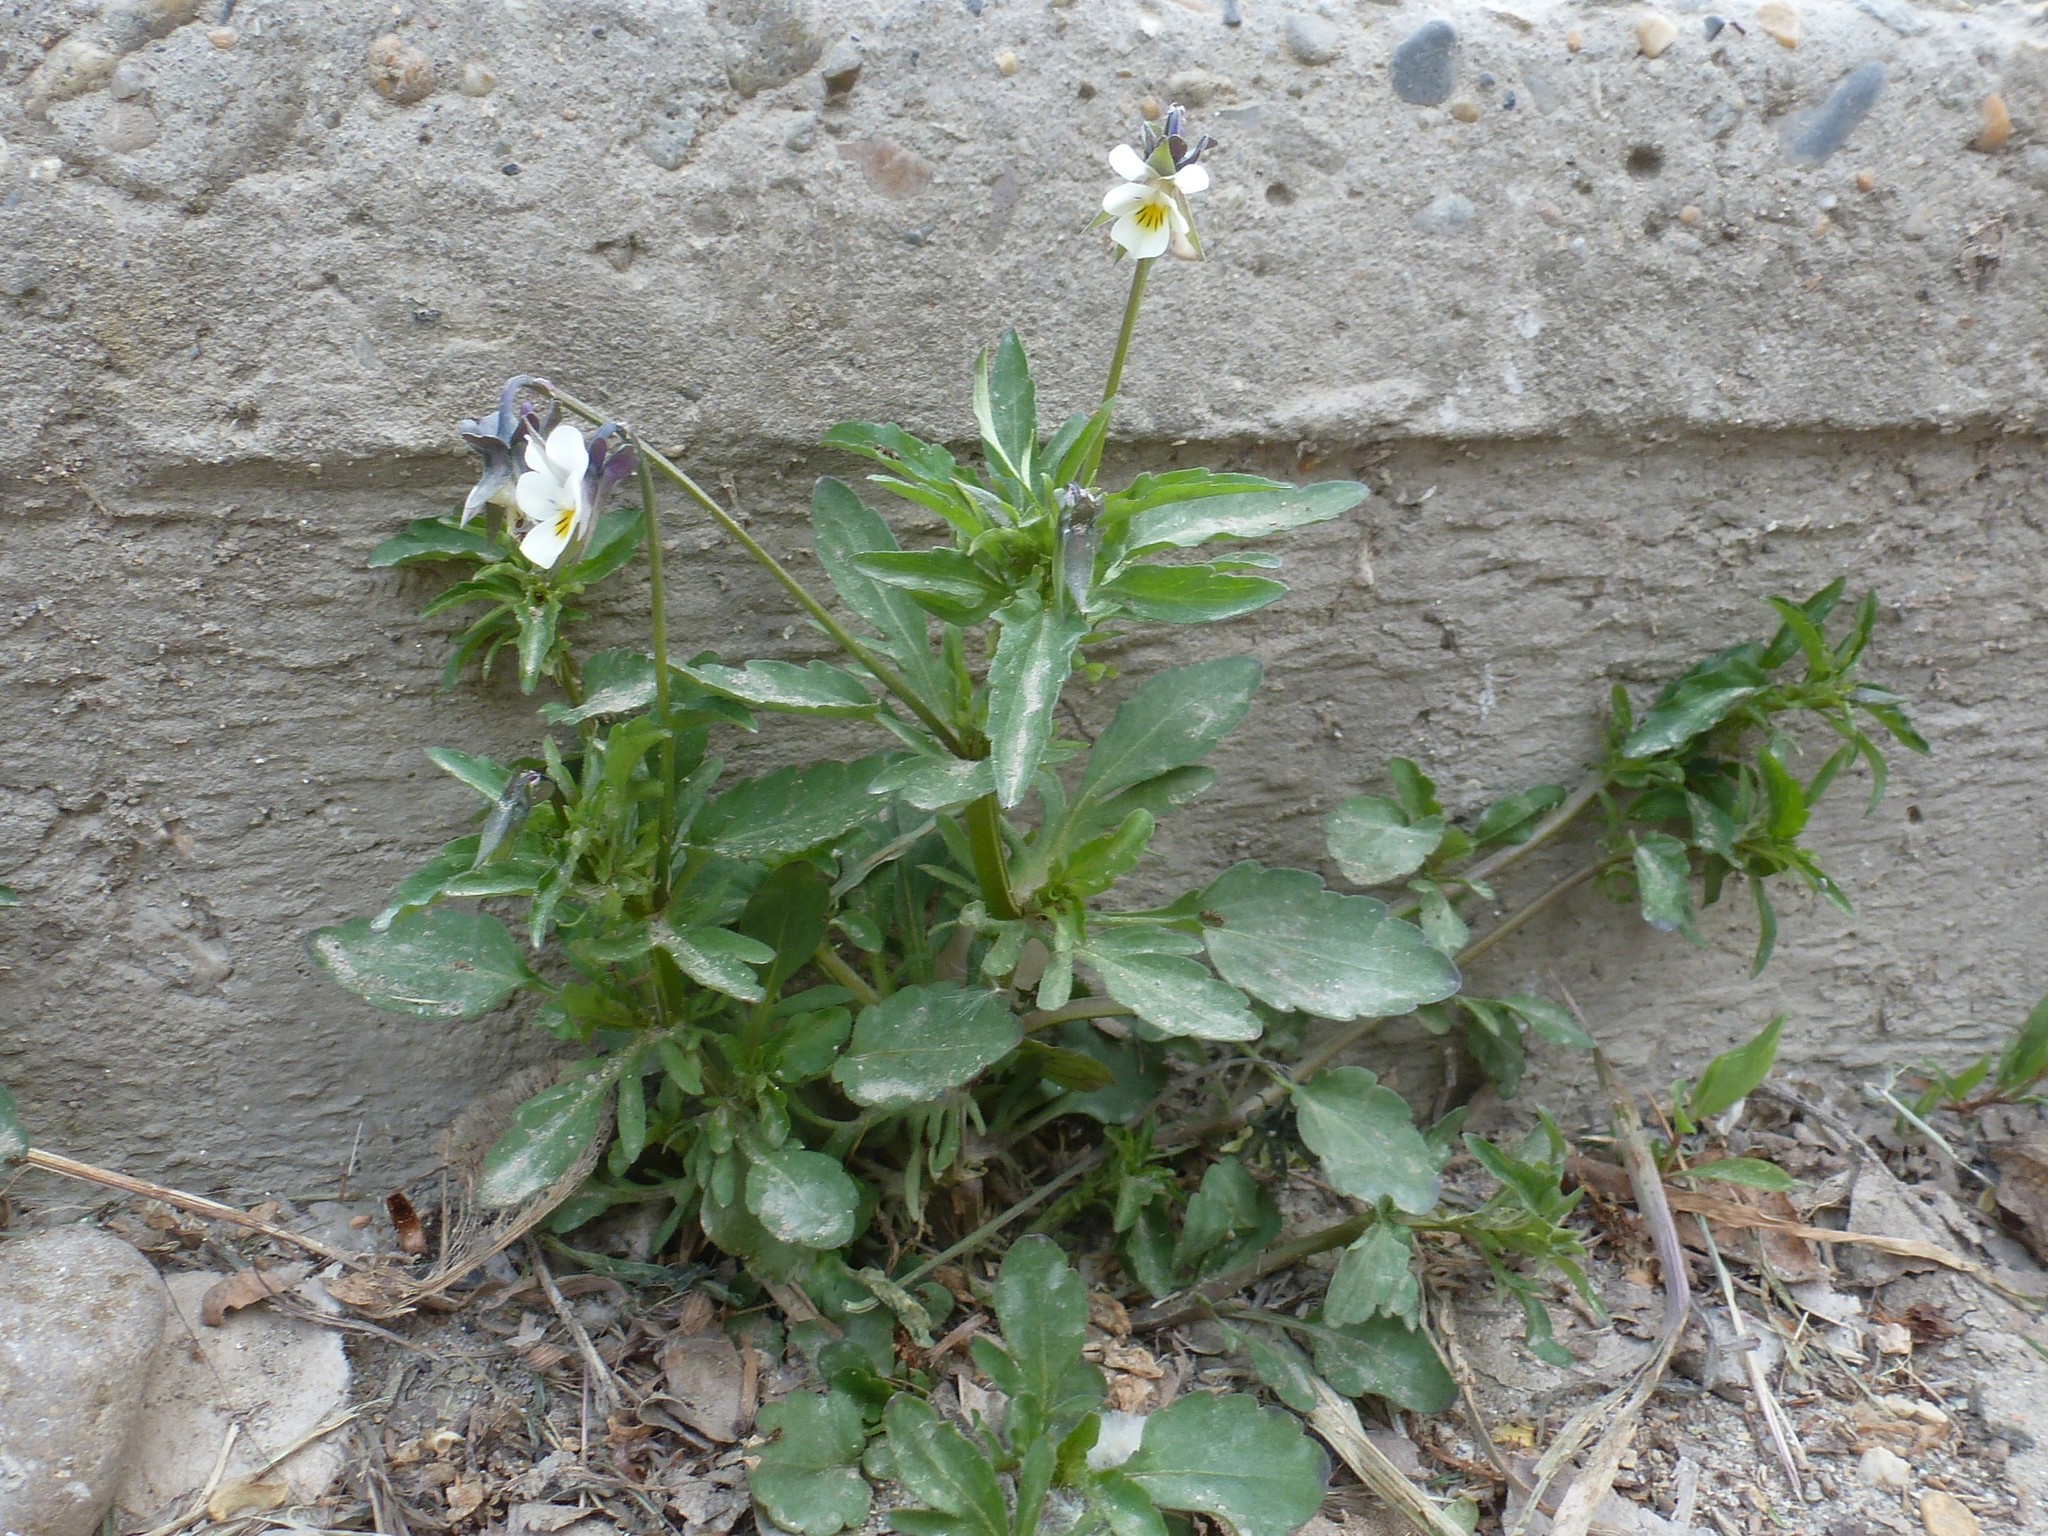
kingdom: Plantae
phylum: Tracheophyta
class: Magnoliopsida
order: Malpighiales
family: Violaceae
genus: Viola
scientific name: Viola arvensis
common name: Field pansy
